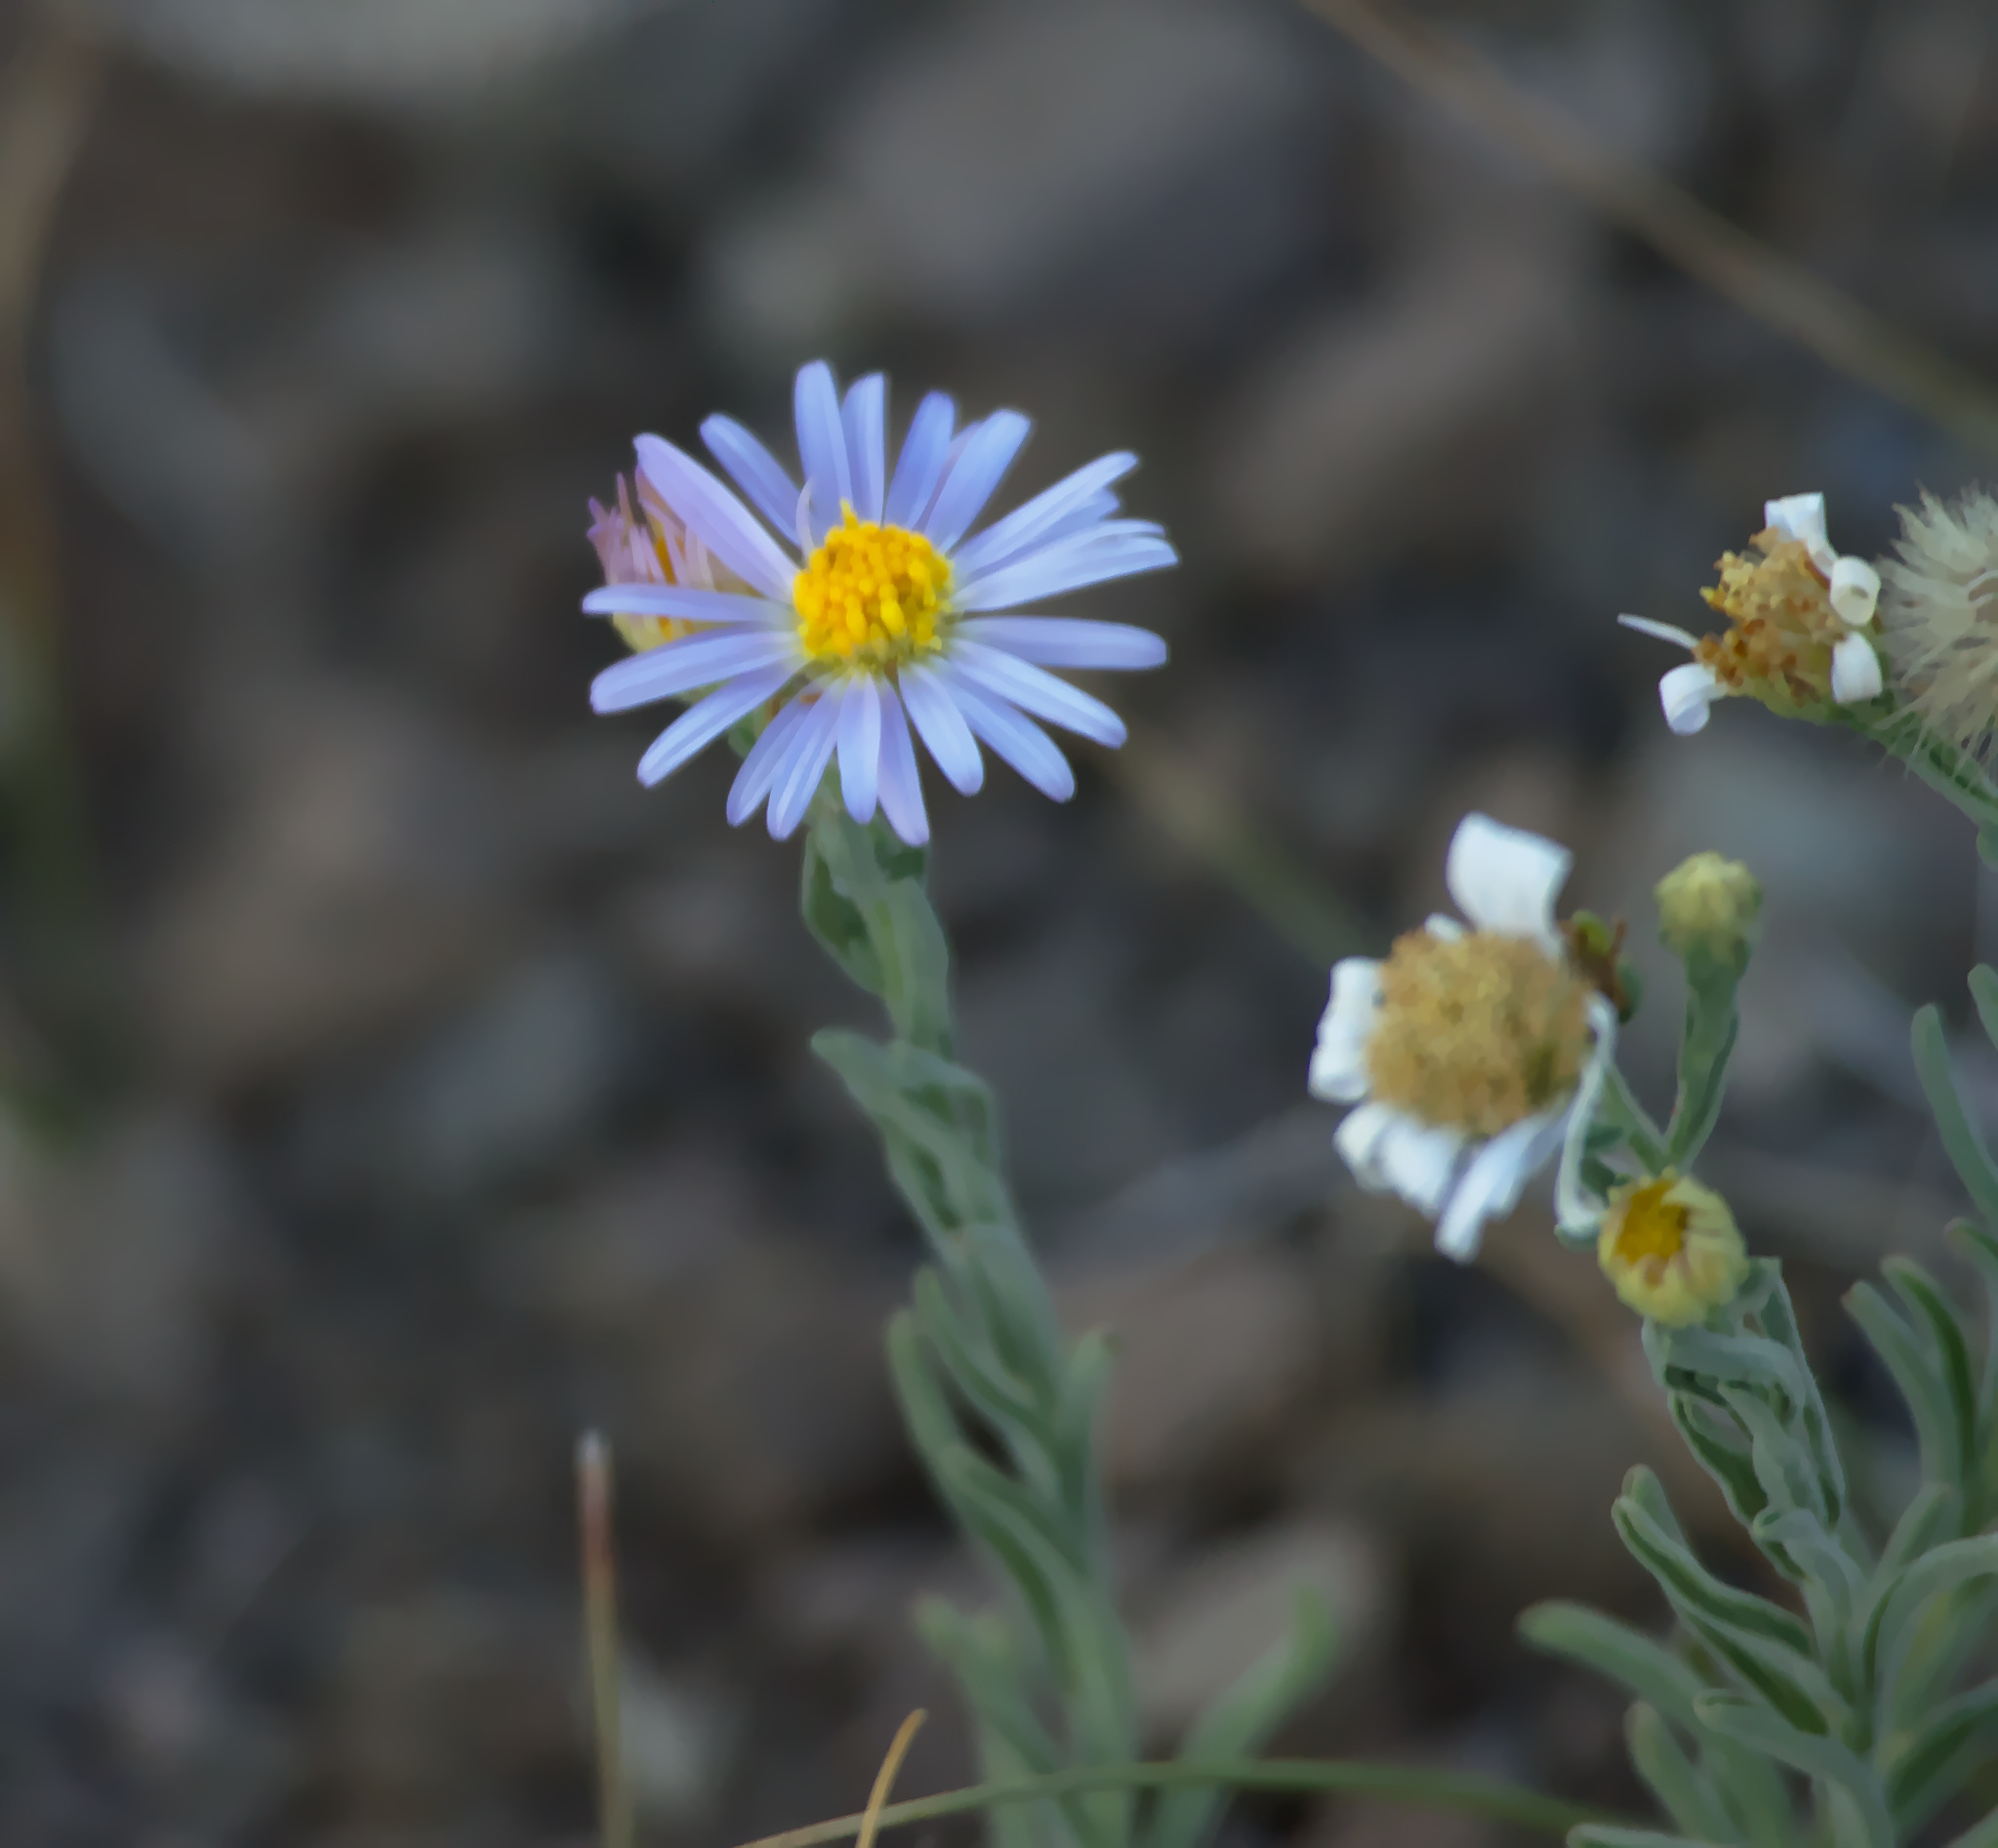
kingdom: Plantae
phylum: Tracheophyta
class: Magnoliopsida
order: Asterales
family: Asteraceae
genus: Heteropappus
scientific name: Heteropappus altaicus
